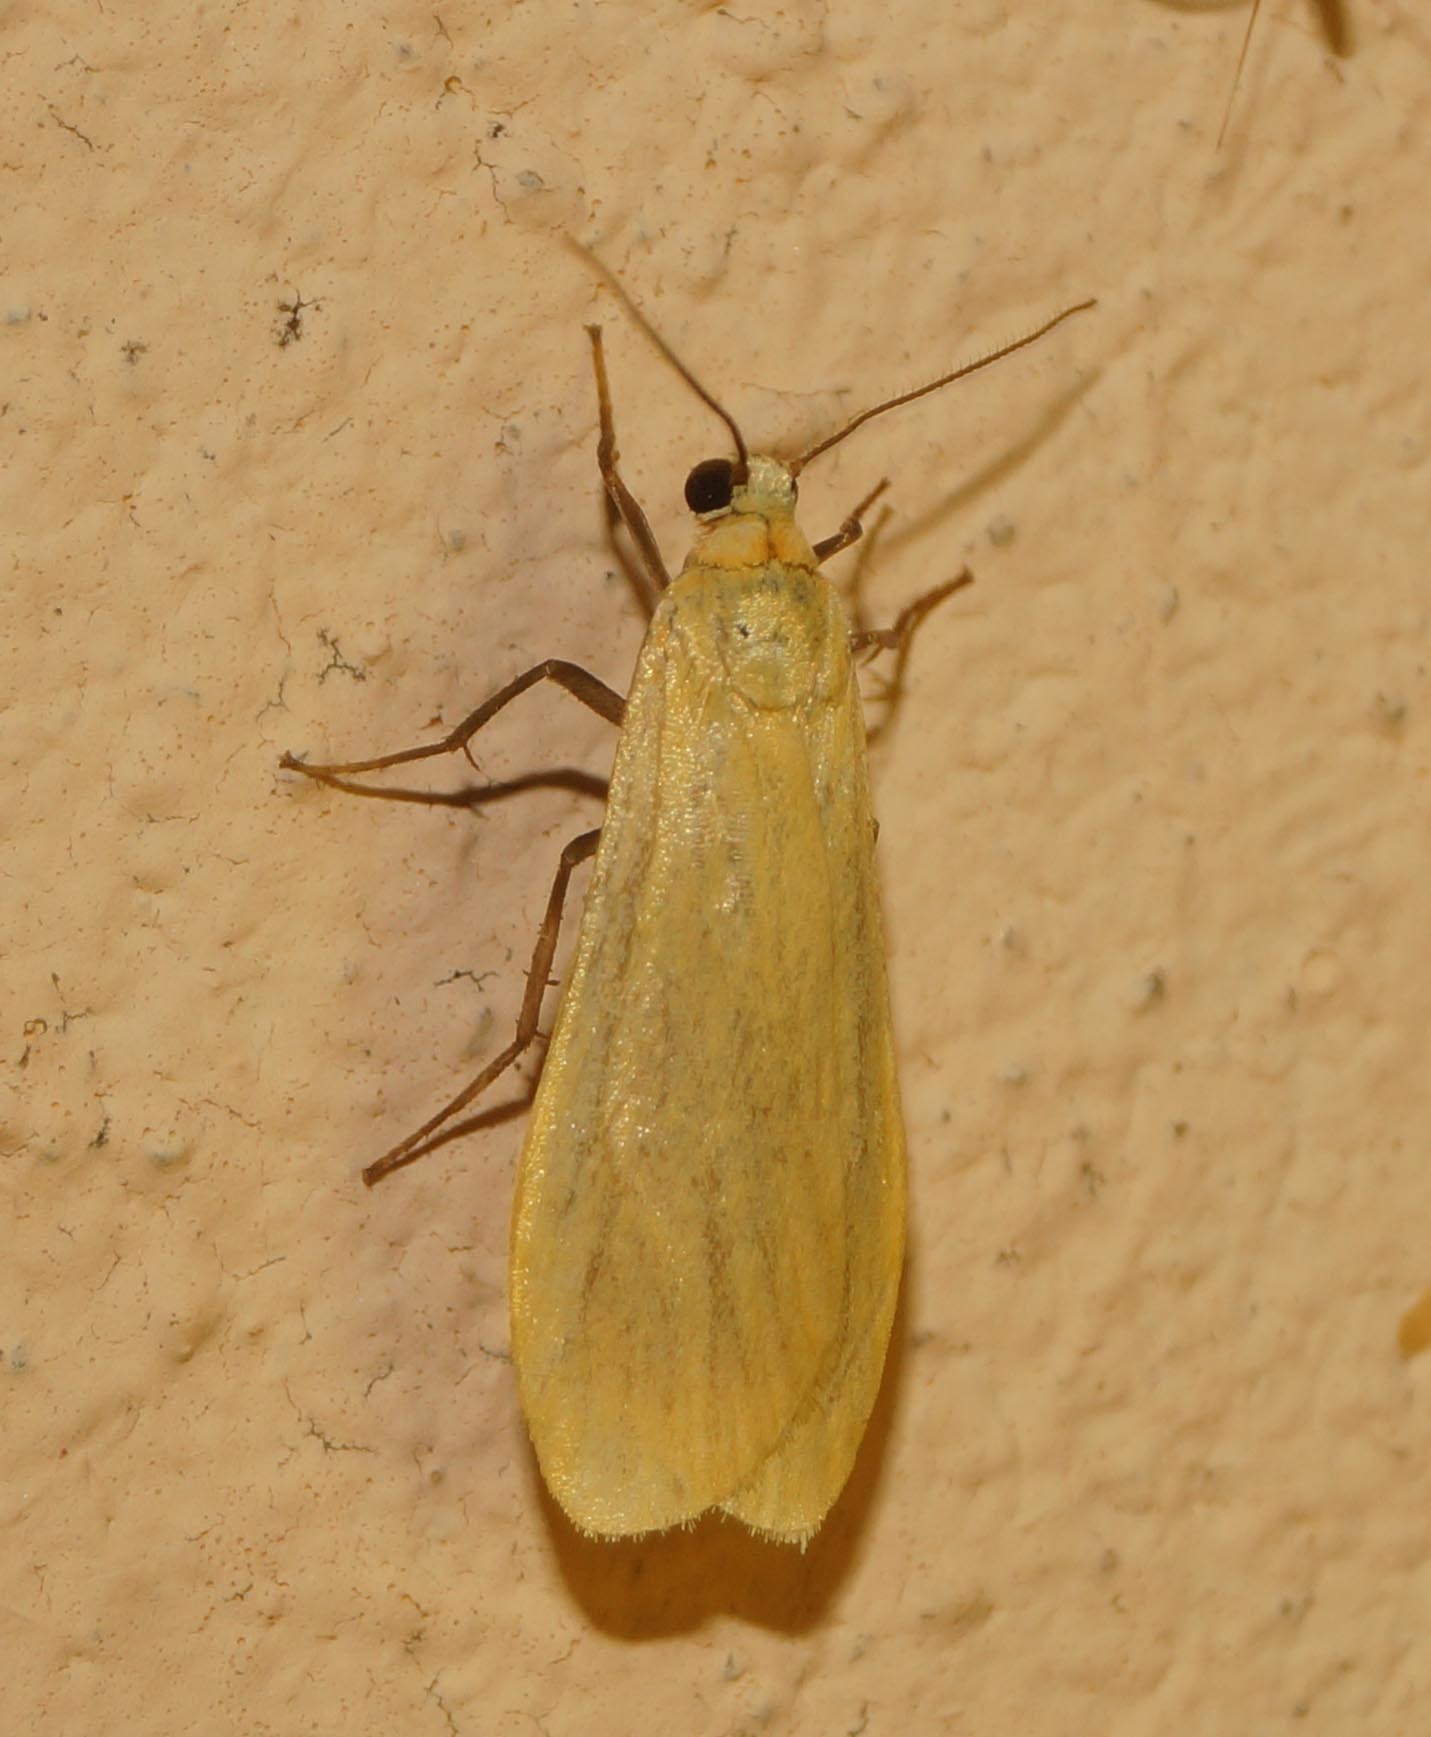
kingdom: Animalia
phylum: Arthropoda
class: Insecta
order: Lepidoptera
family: Erebidae
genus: Wittia
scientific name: Wittia sororcula
